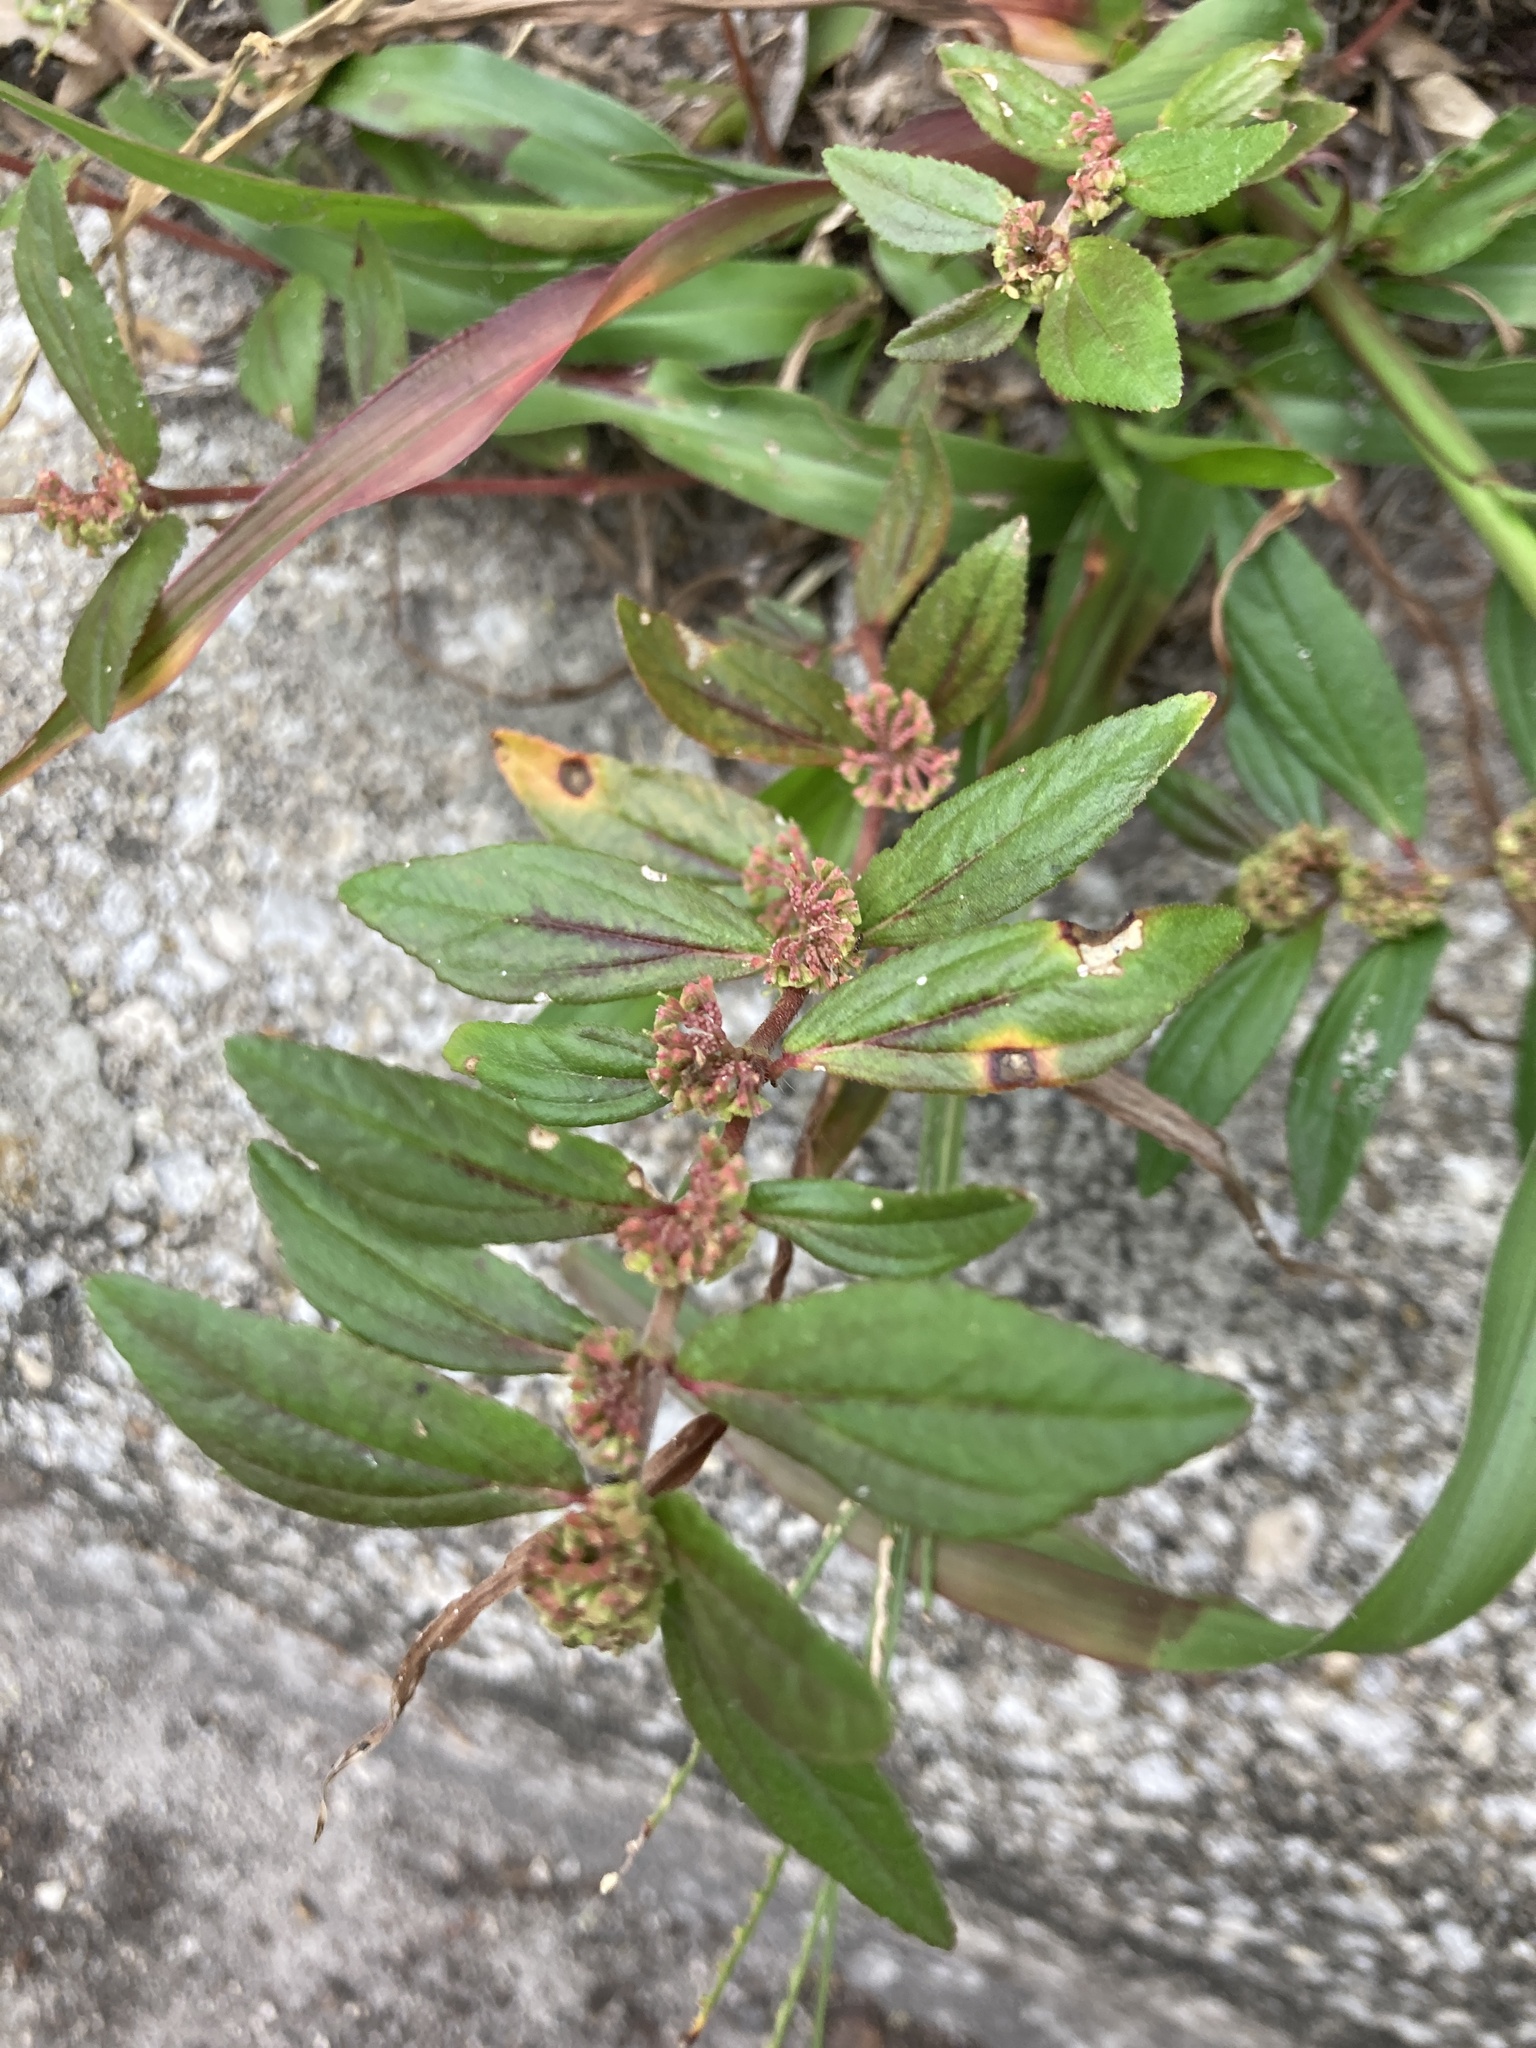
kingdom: Plantae
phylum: Tracheophyta
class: Magnoliopsida
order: Malpighiales
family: Euphorbiaceae
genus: Euphorbia
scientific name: Euphorbia hirta
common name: Pillpod sandmat
